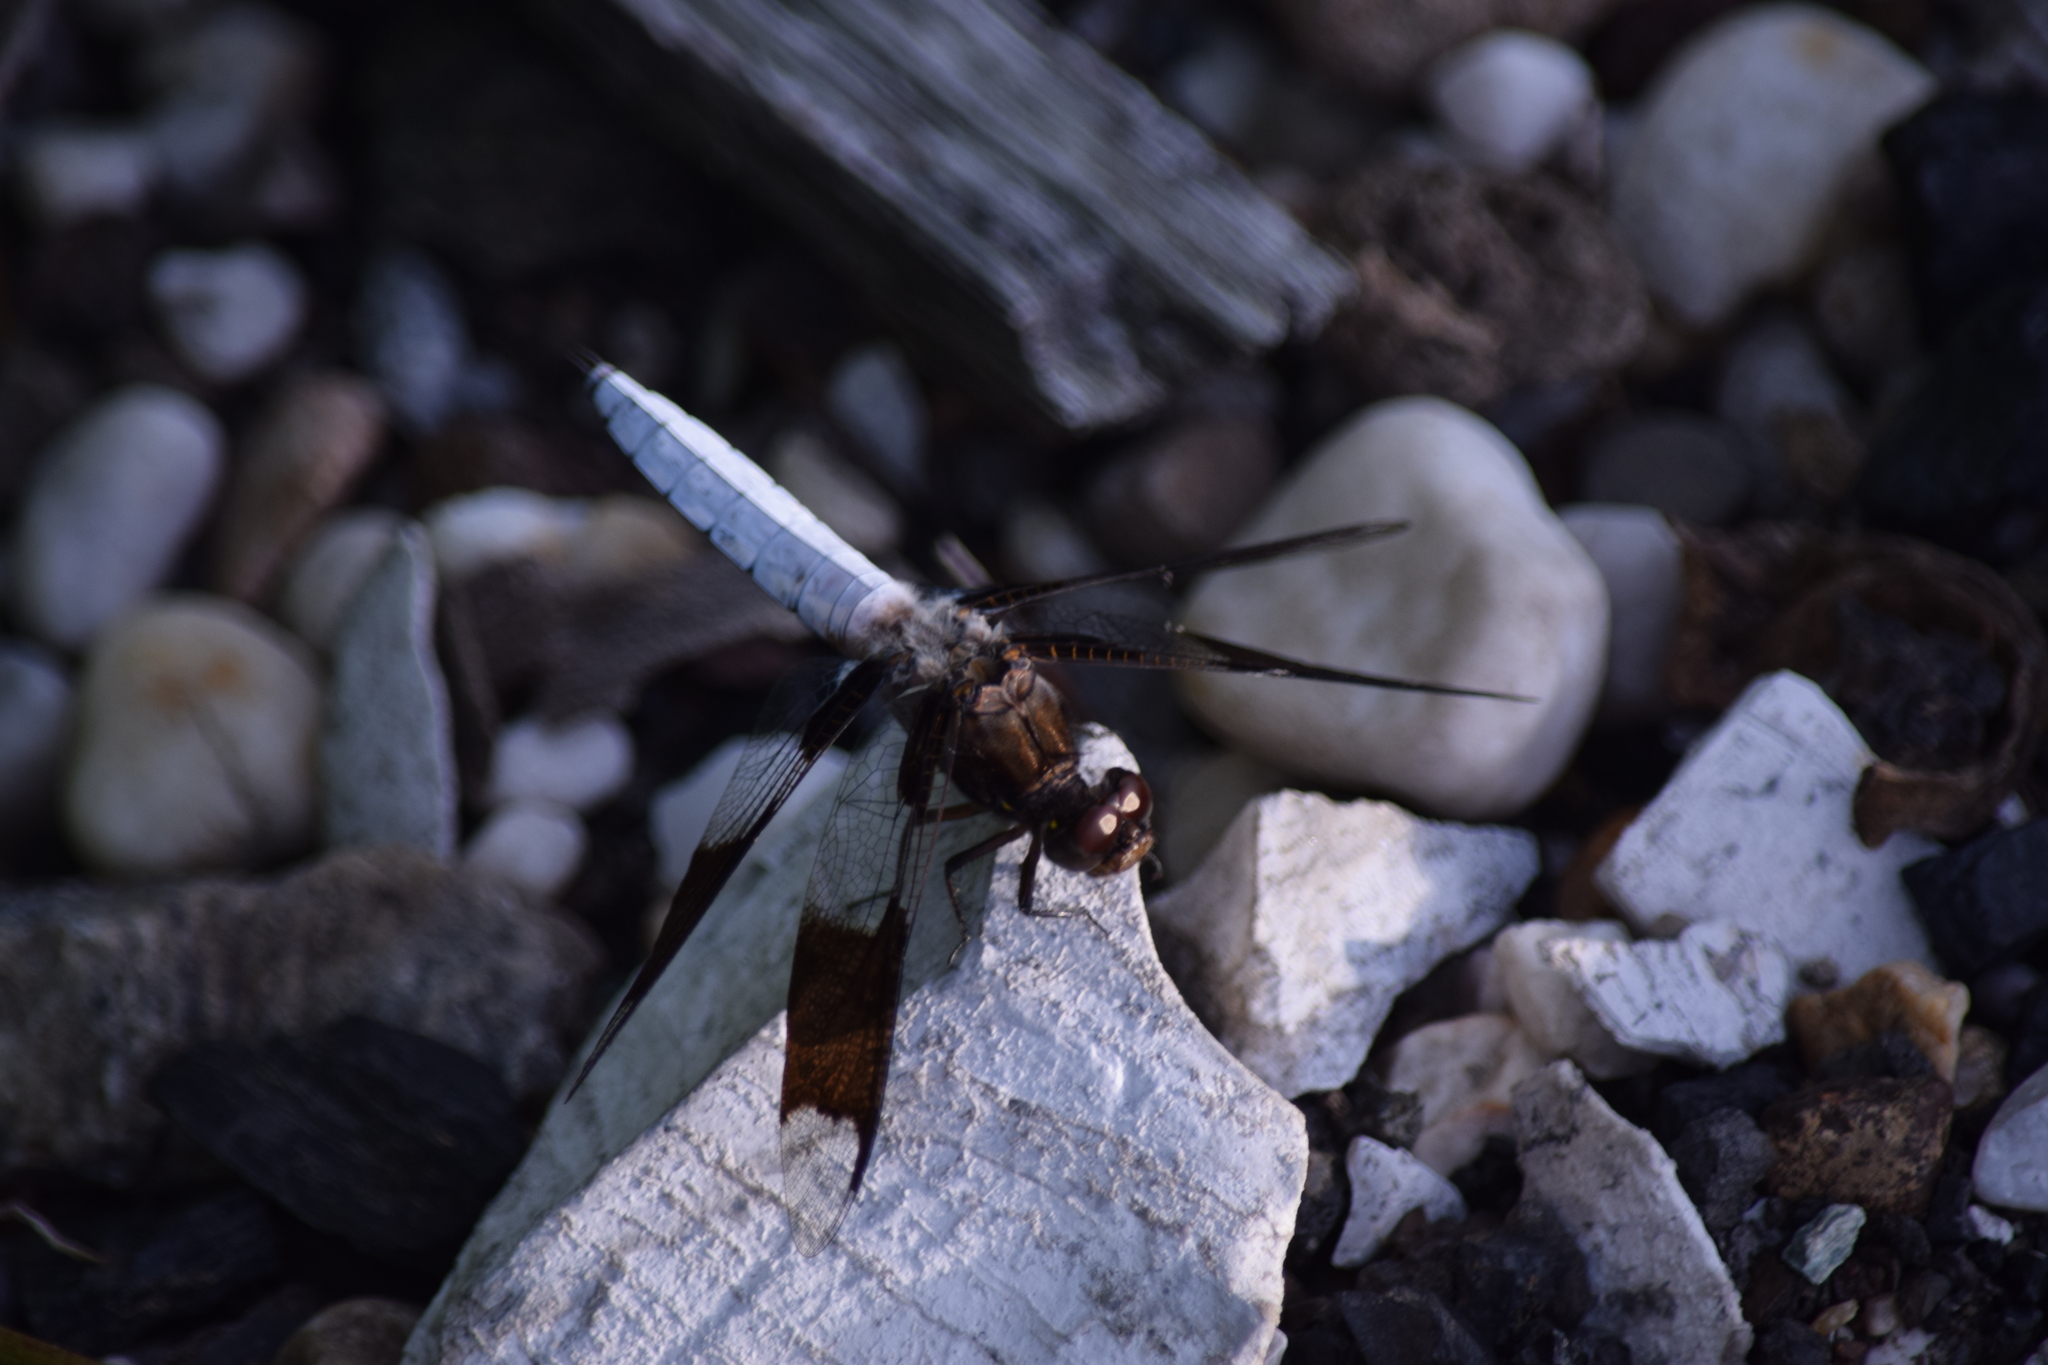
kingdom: Animalia
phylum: Arthropoda
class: Insecta
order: Odonata
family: Libellulidae
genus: Plathemis
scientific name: Plathemis lydia
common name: Common whitetail
